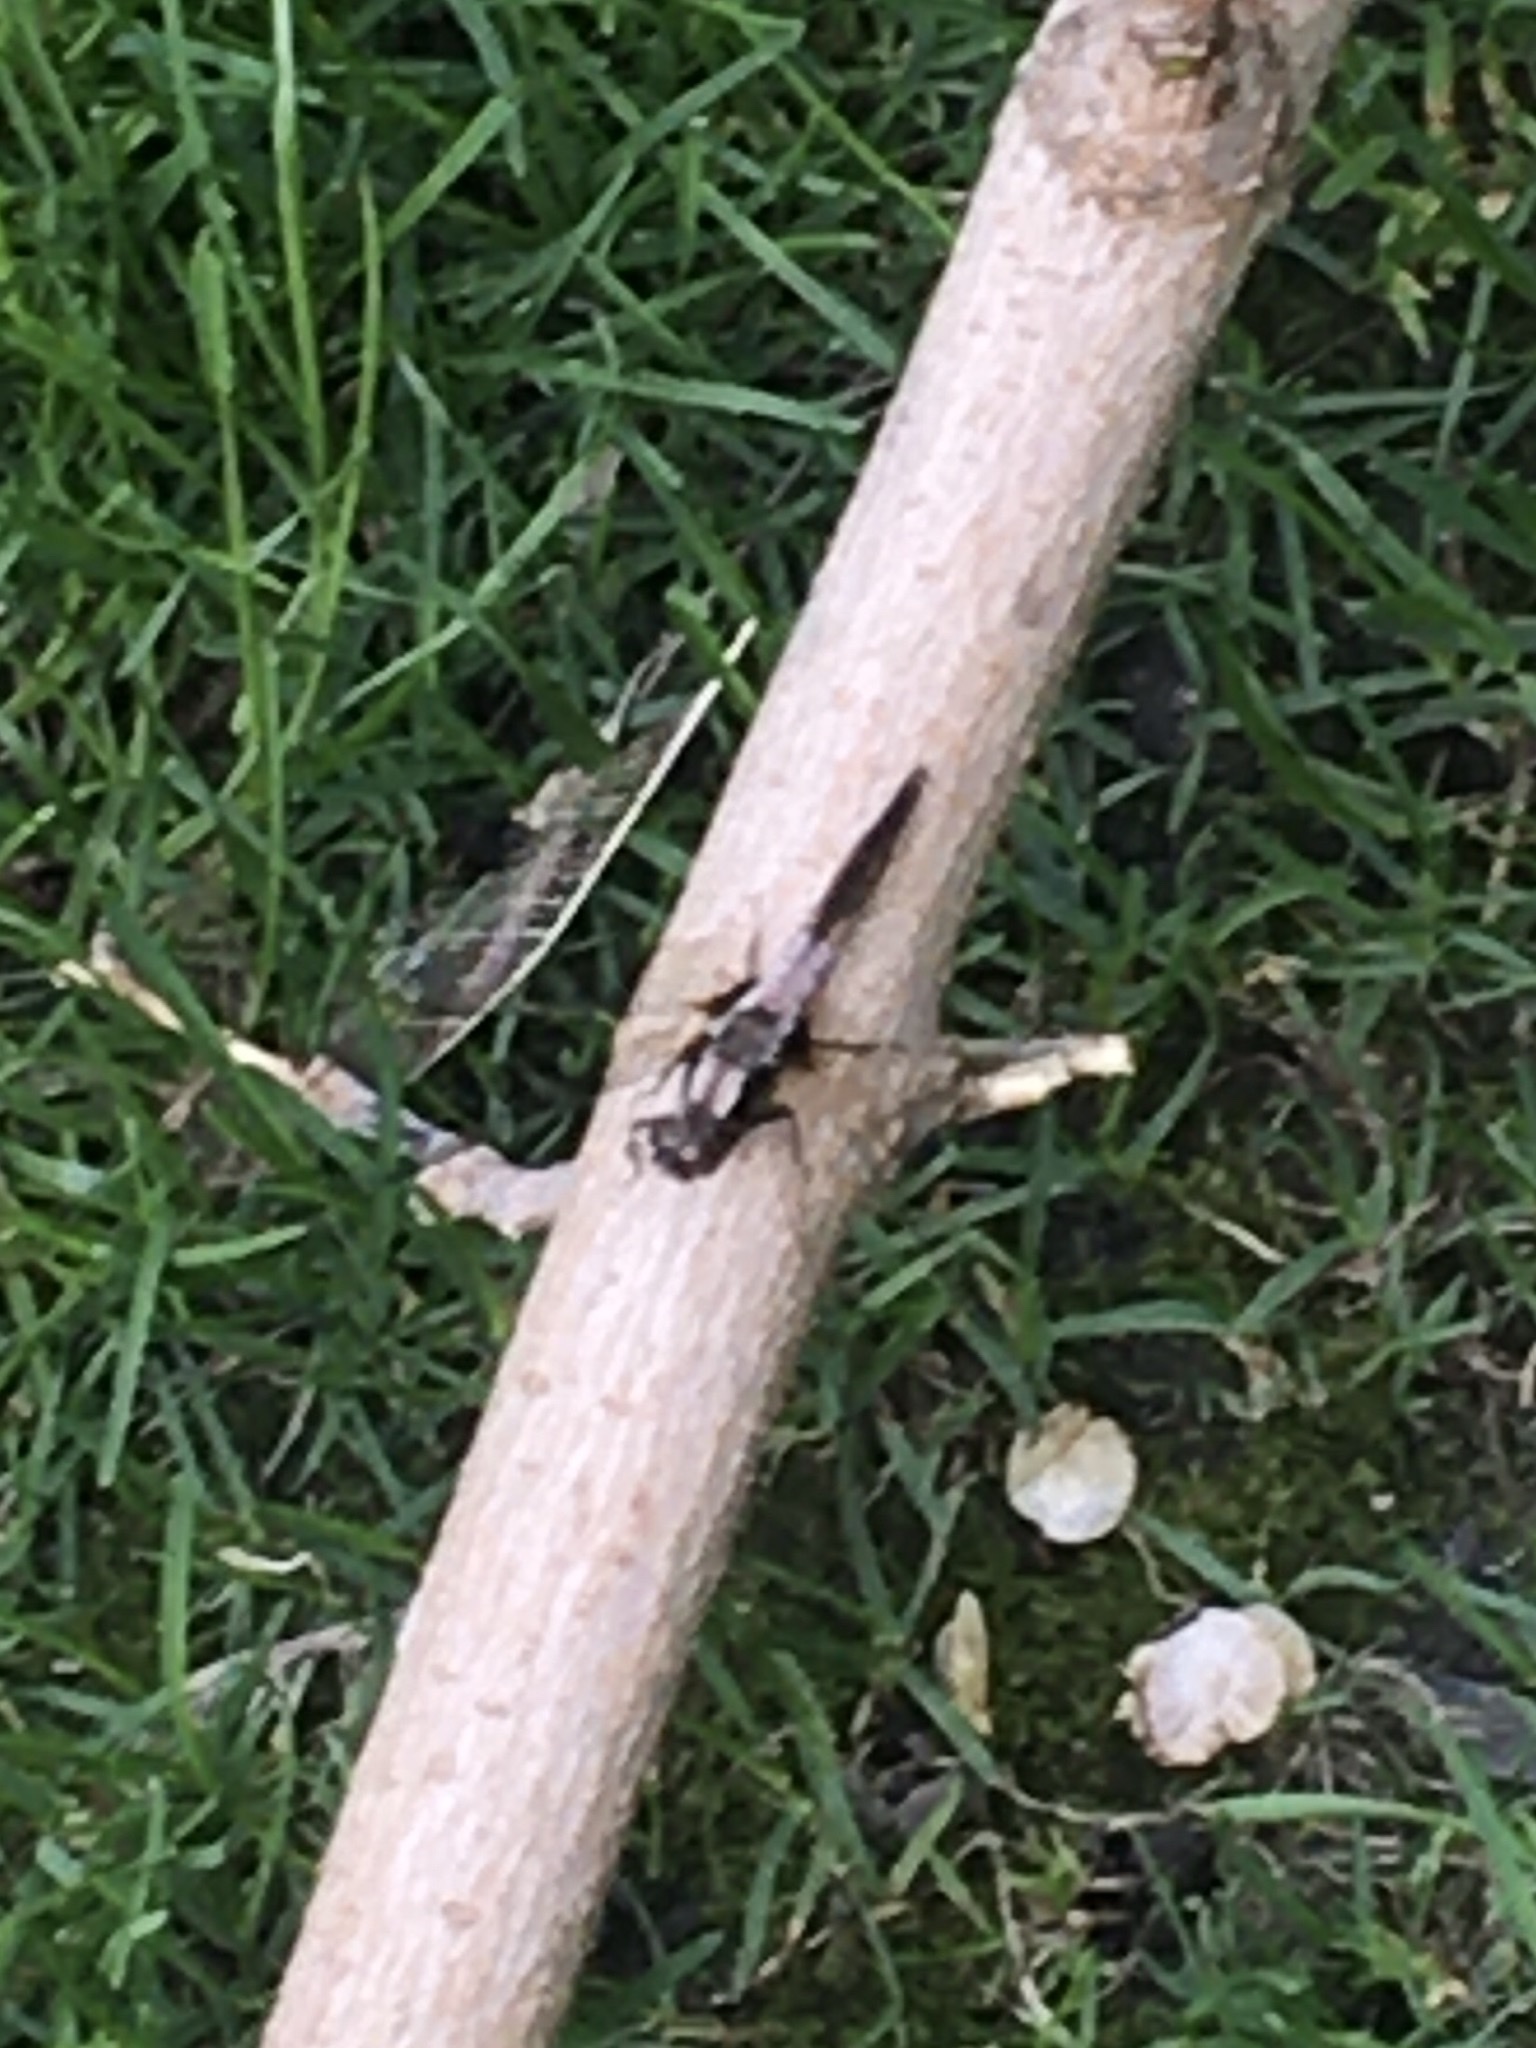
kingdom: Animalia
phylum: Arthropoda
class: Insecta
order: Odonata
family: Libellulidae
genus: Ladona
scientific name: Ladona julia
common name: Chalk-fronted corporal
